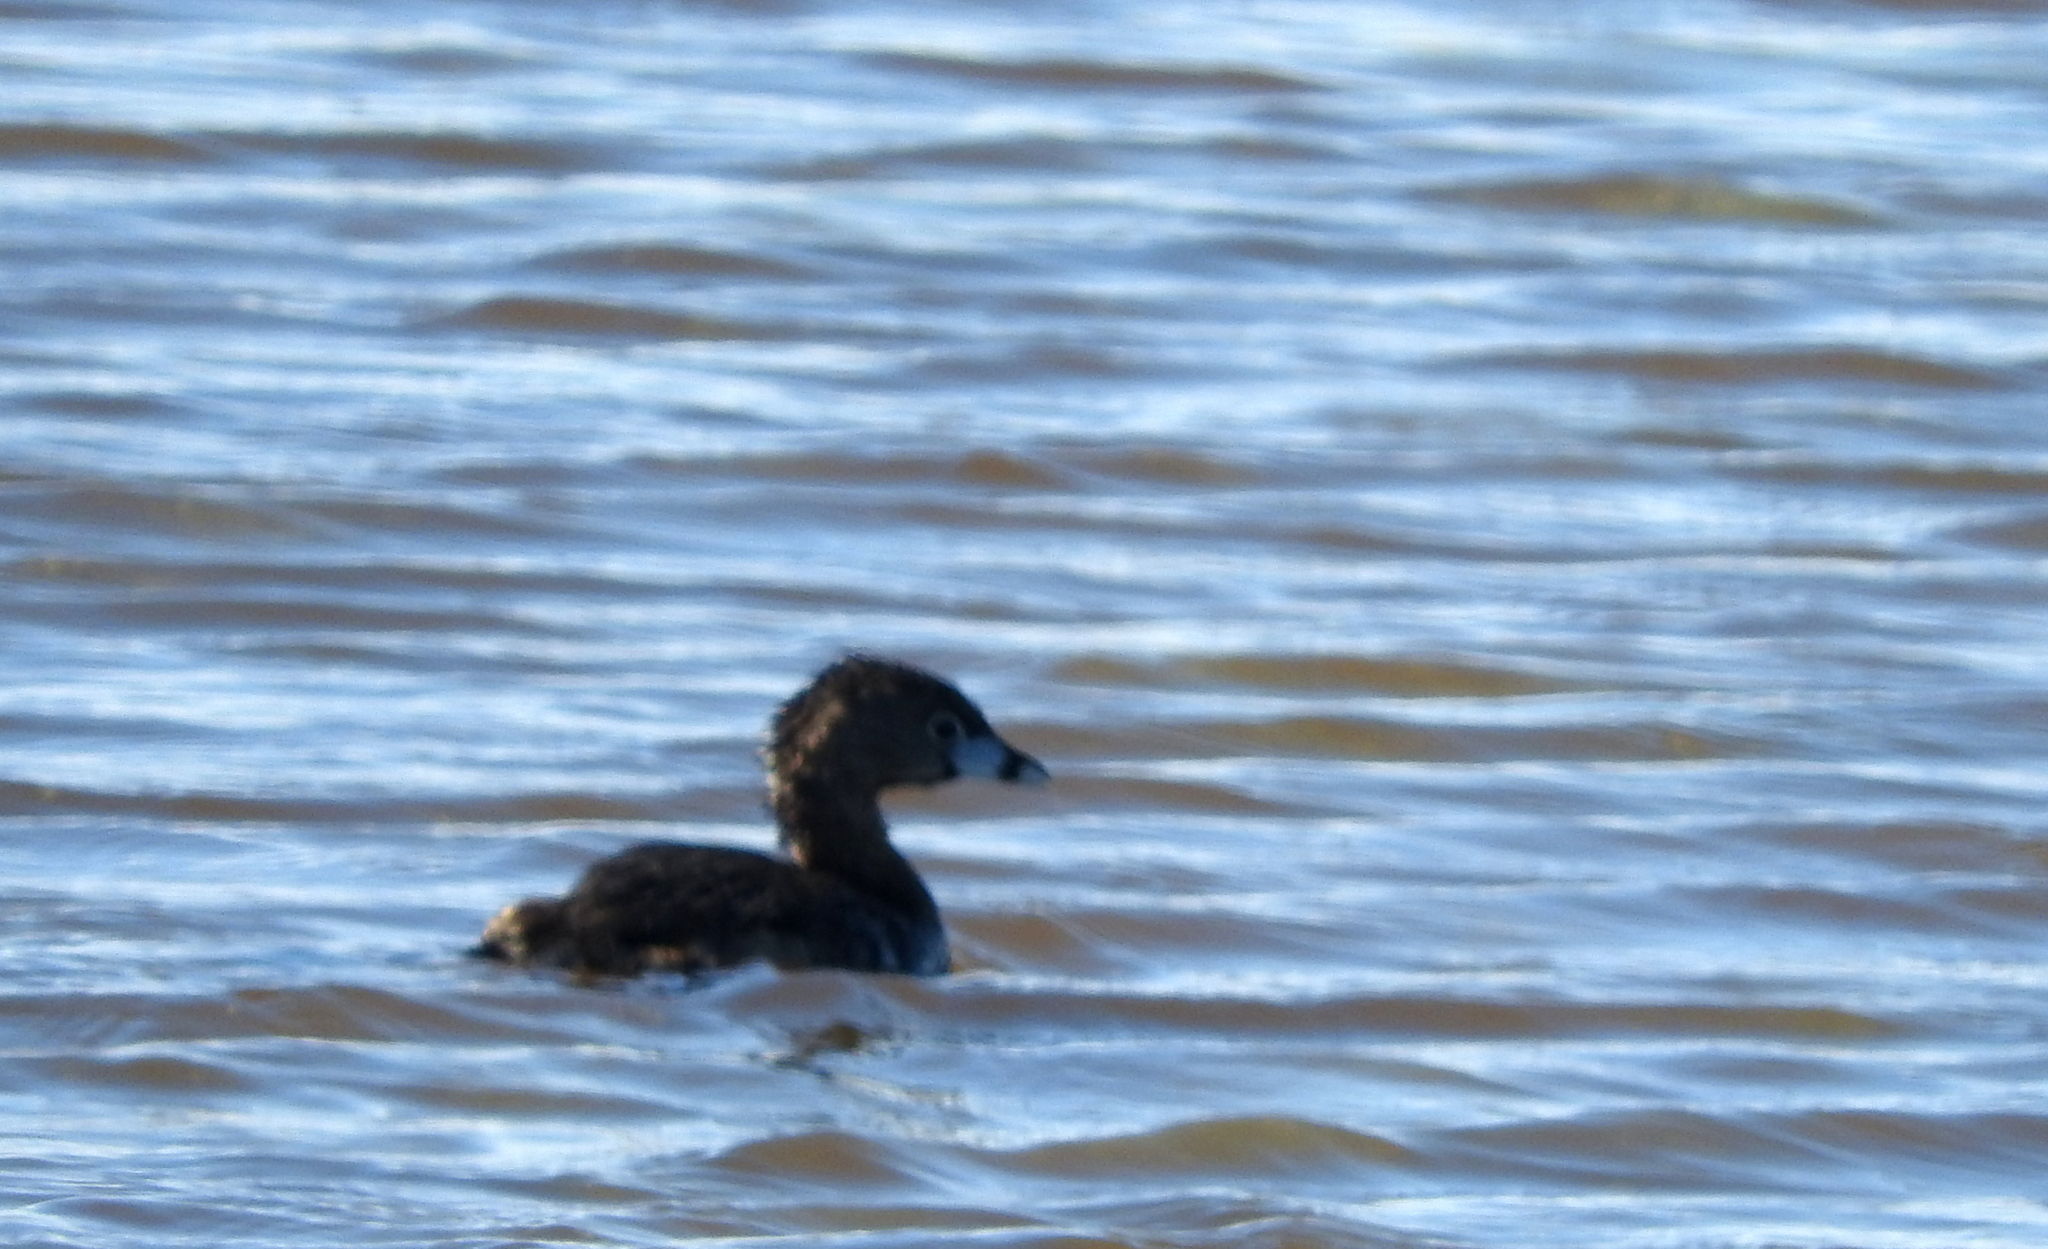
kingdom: Animalia
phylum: Chordata
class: Aves
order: Podicipediformes
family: Podicipedidae
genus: Podilymbus
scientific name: Podilymbus podiceps
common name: Pied-billed grebe
